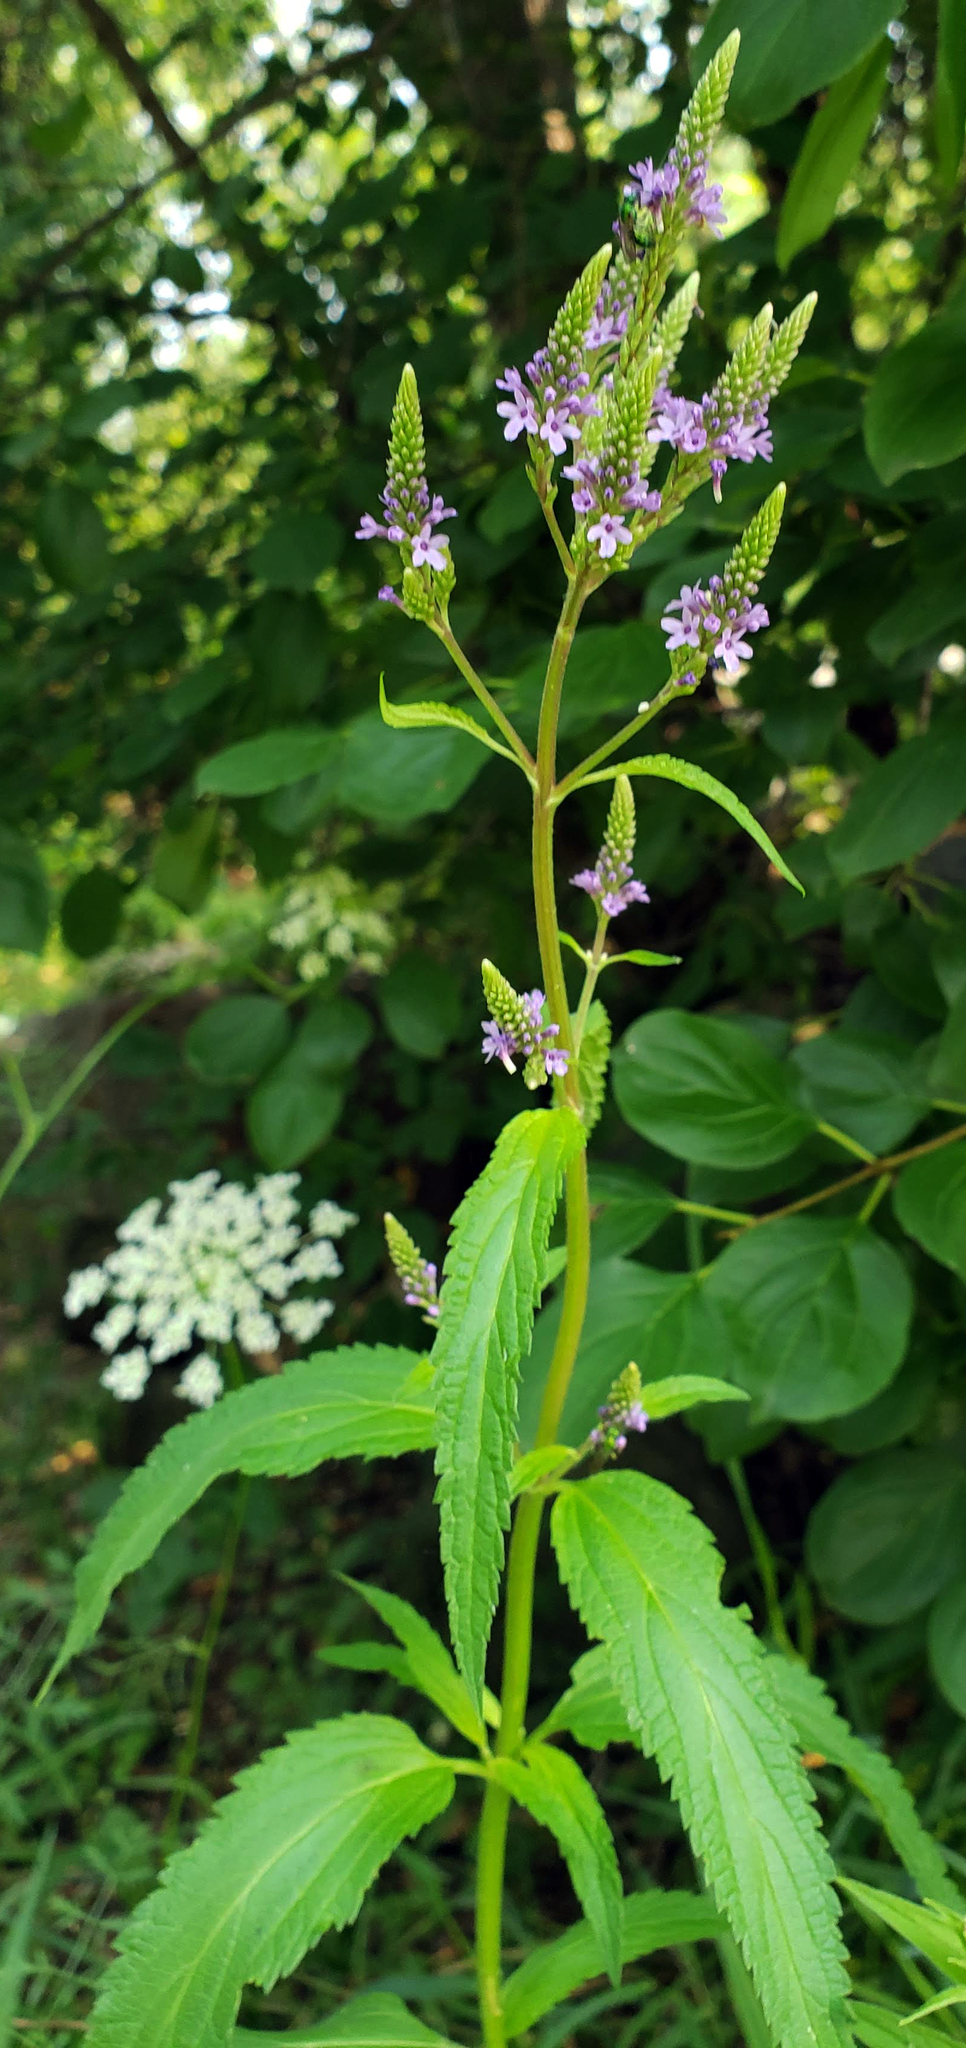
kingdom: Plantae
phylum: Tracheophyta
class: Magnoliopsida
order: Lamiales
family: Verbenaceae
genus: Verbena
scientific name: Verbena hastata
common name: American blue vervain
